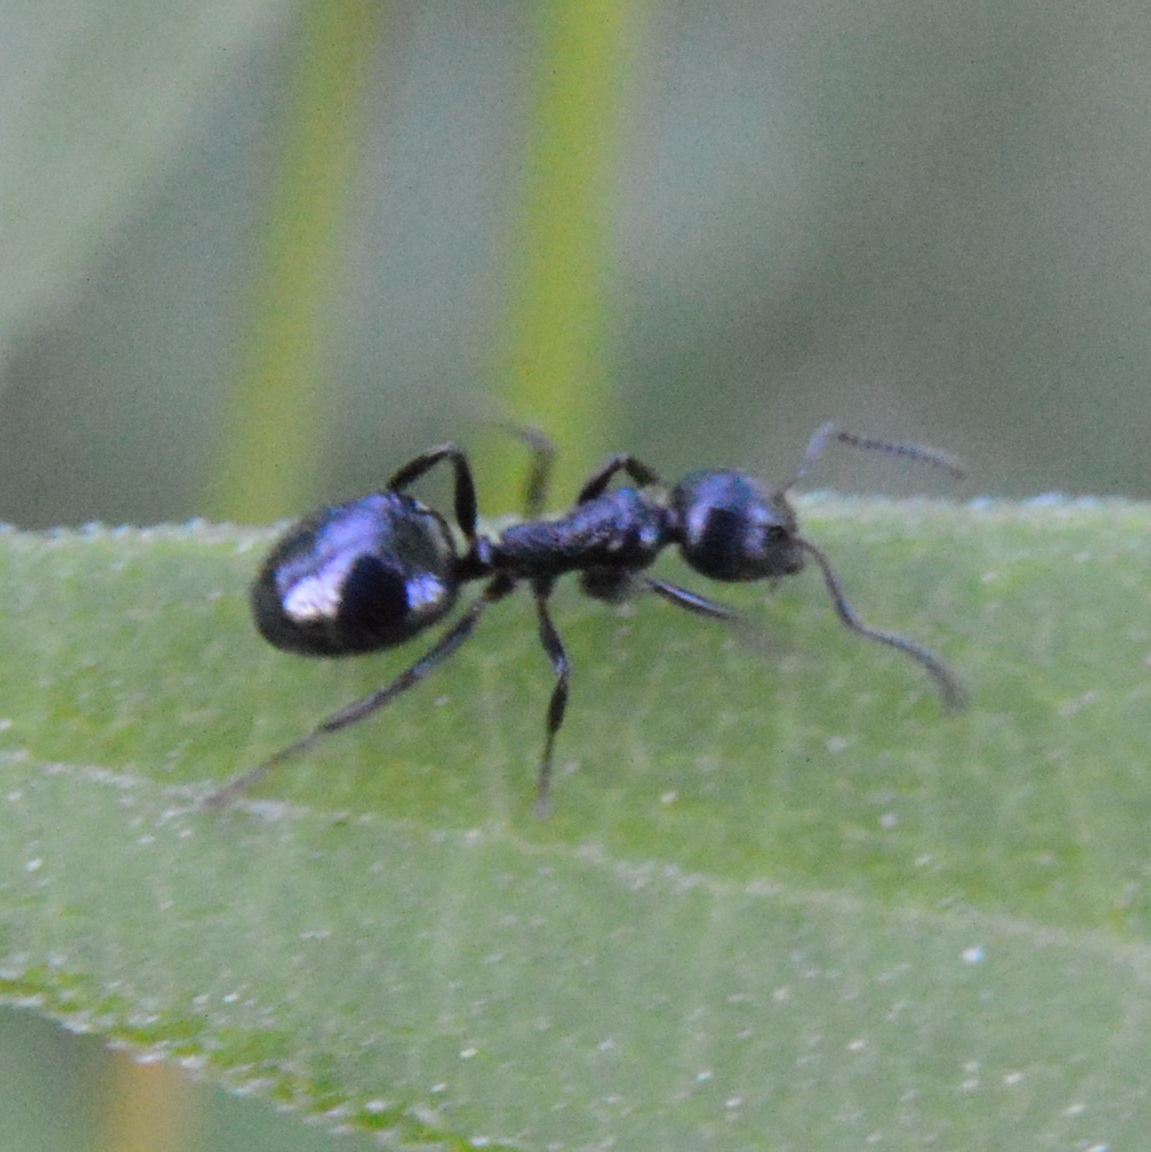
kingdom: Animalia
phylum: Arthropoda
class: Insecta
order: Hymenoptera
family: Formicidae
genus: Dolichoderus
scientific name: Dolichoderus taschenbergi
